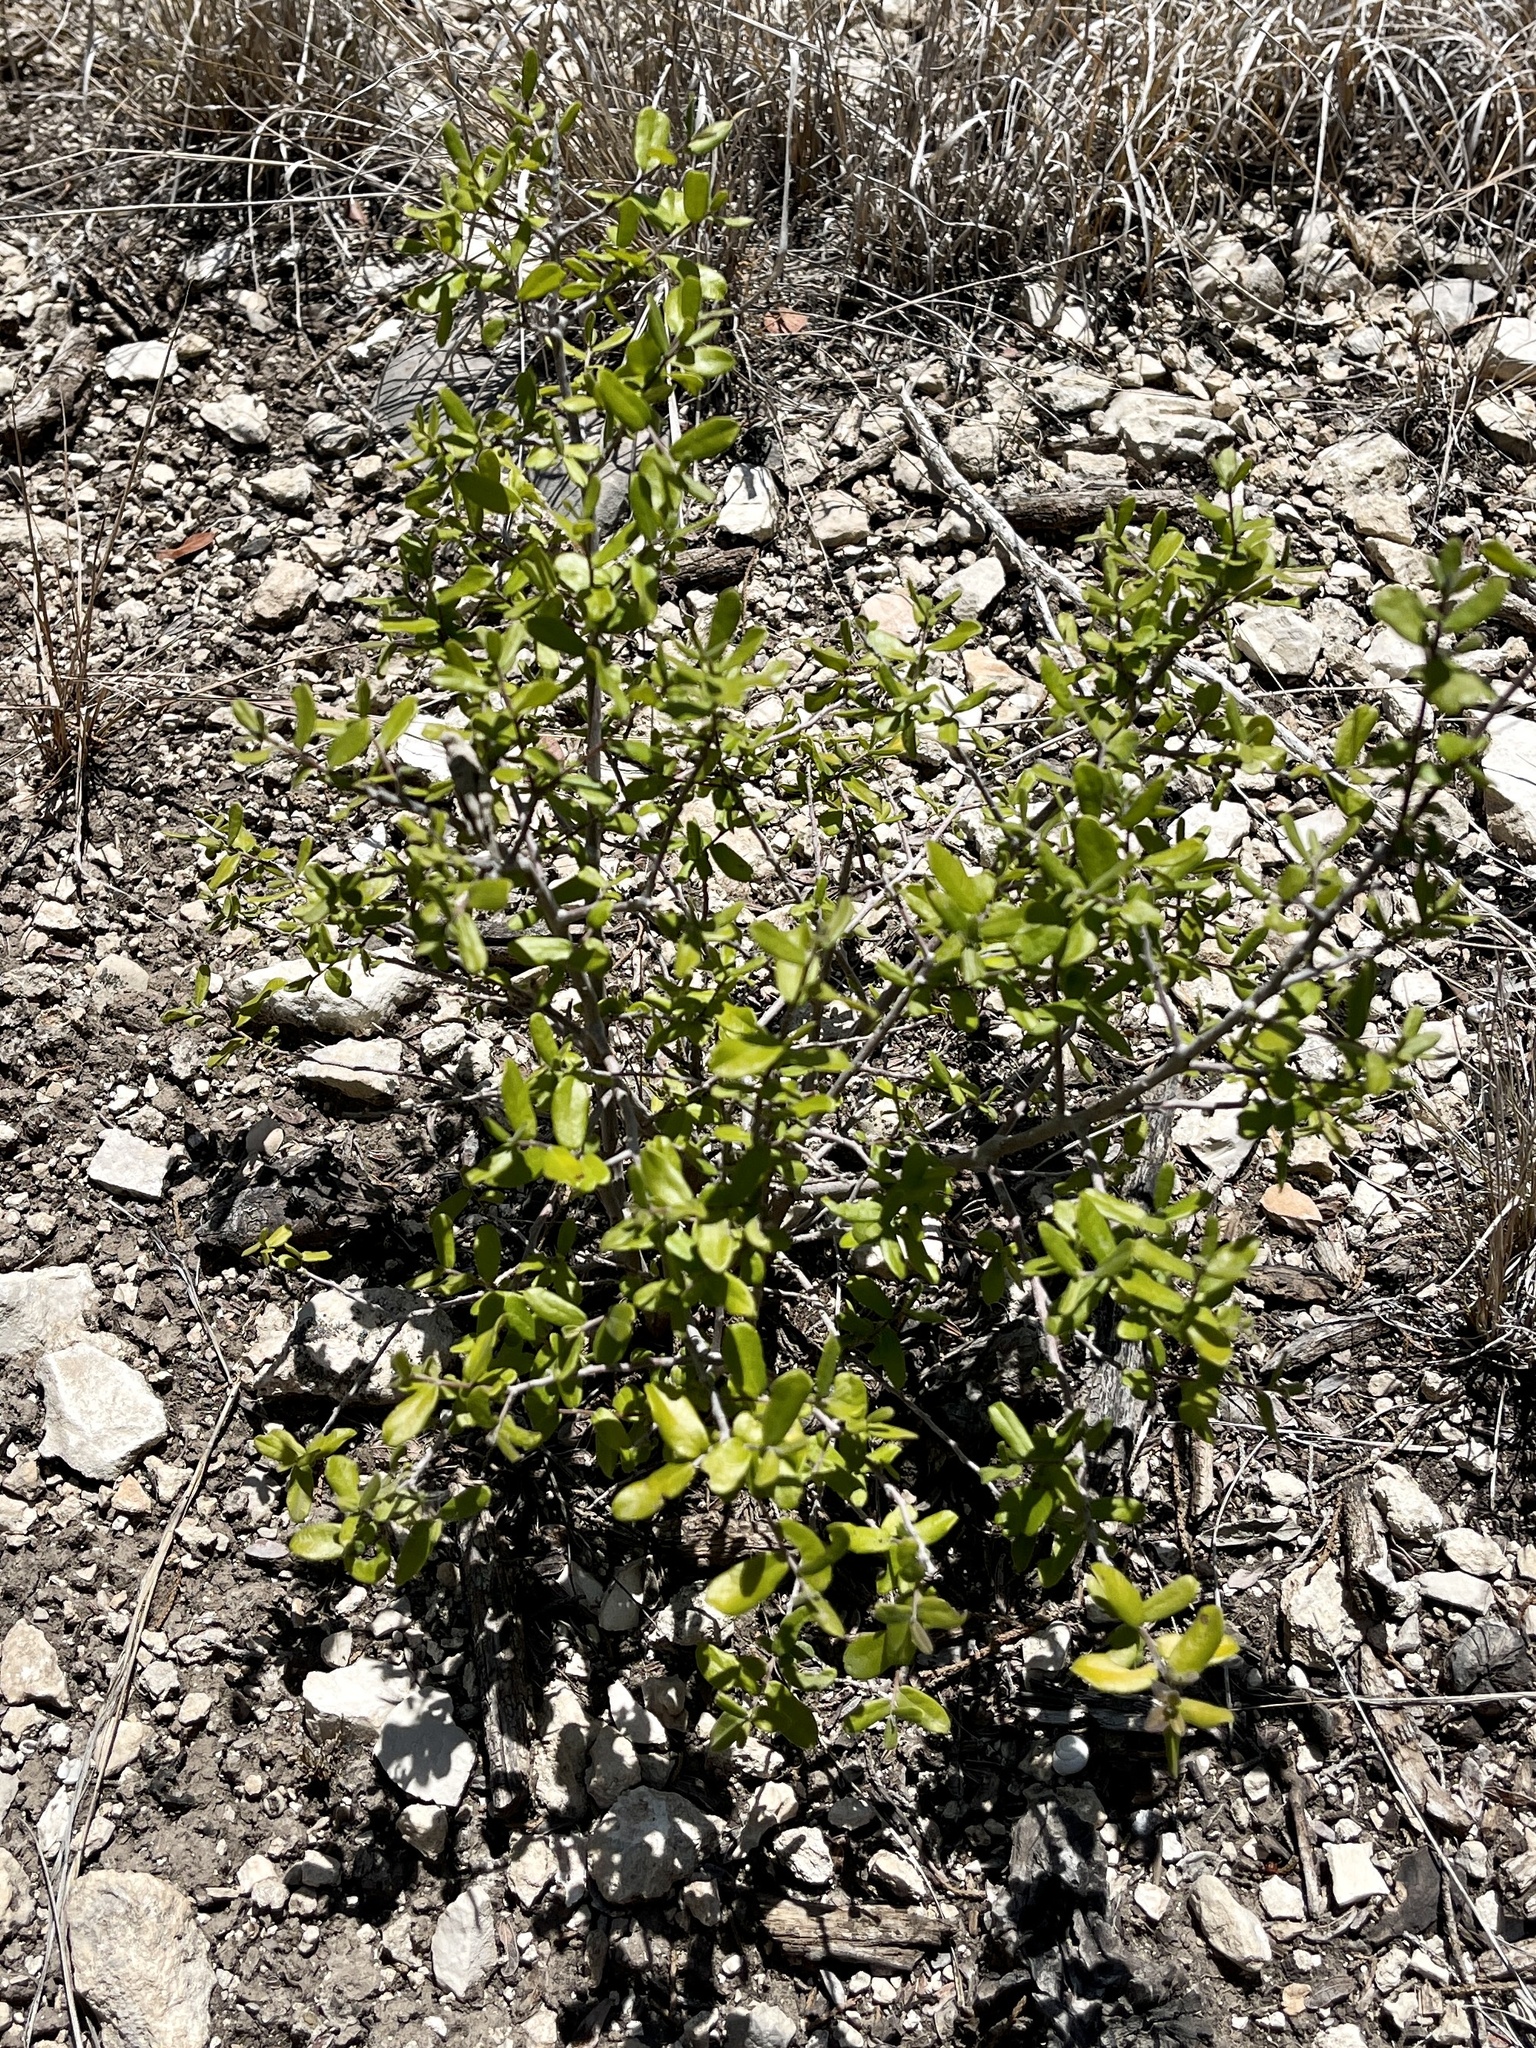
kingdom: Plantae
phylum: Tracheophyta
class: Magnoliopsida
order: Ericales
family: Ebenaceae
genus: Diospyros
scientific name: Diospyros texana
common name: Texas persimmon
